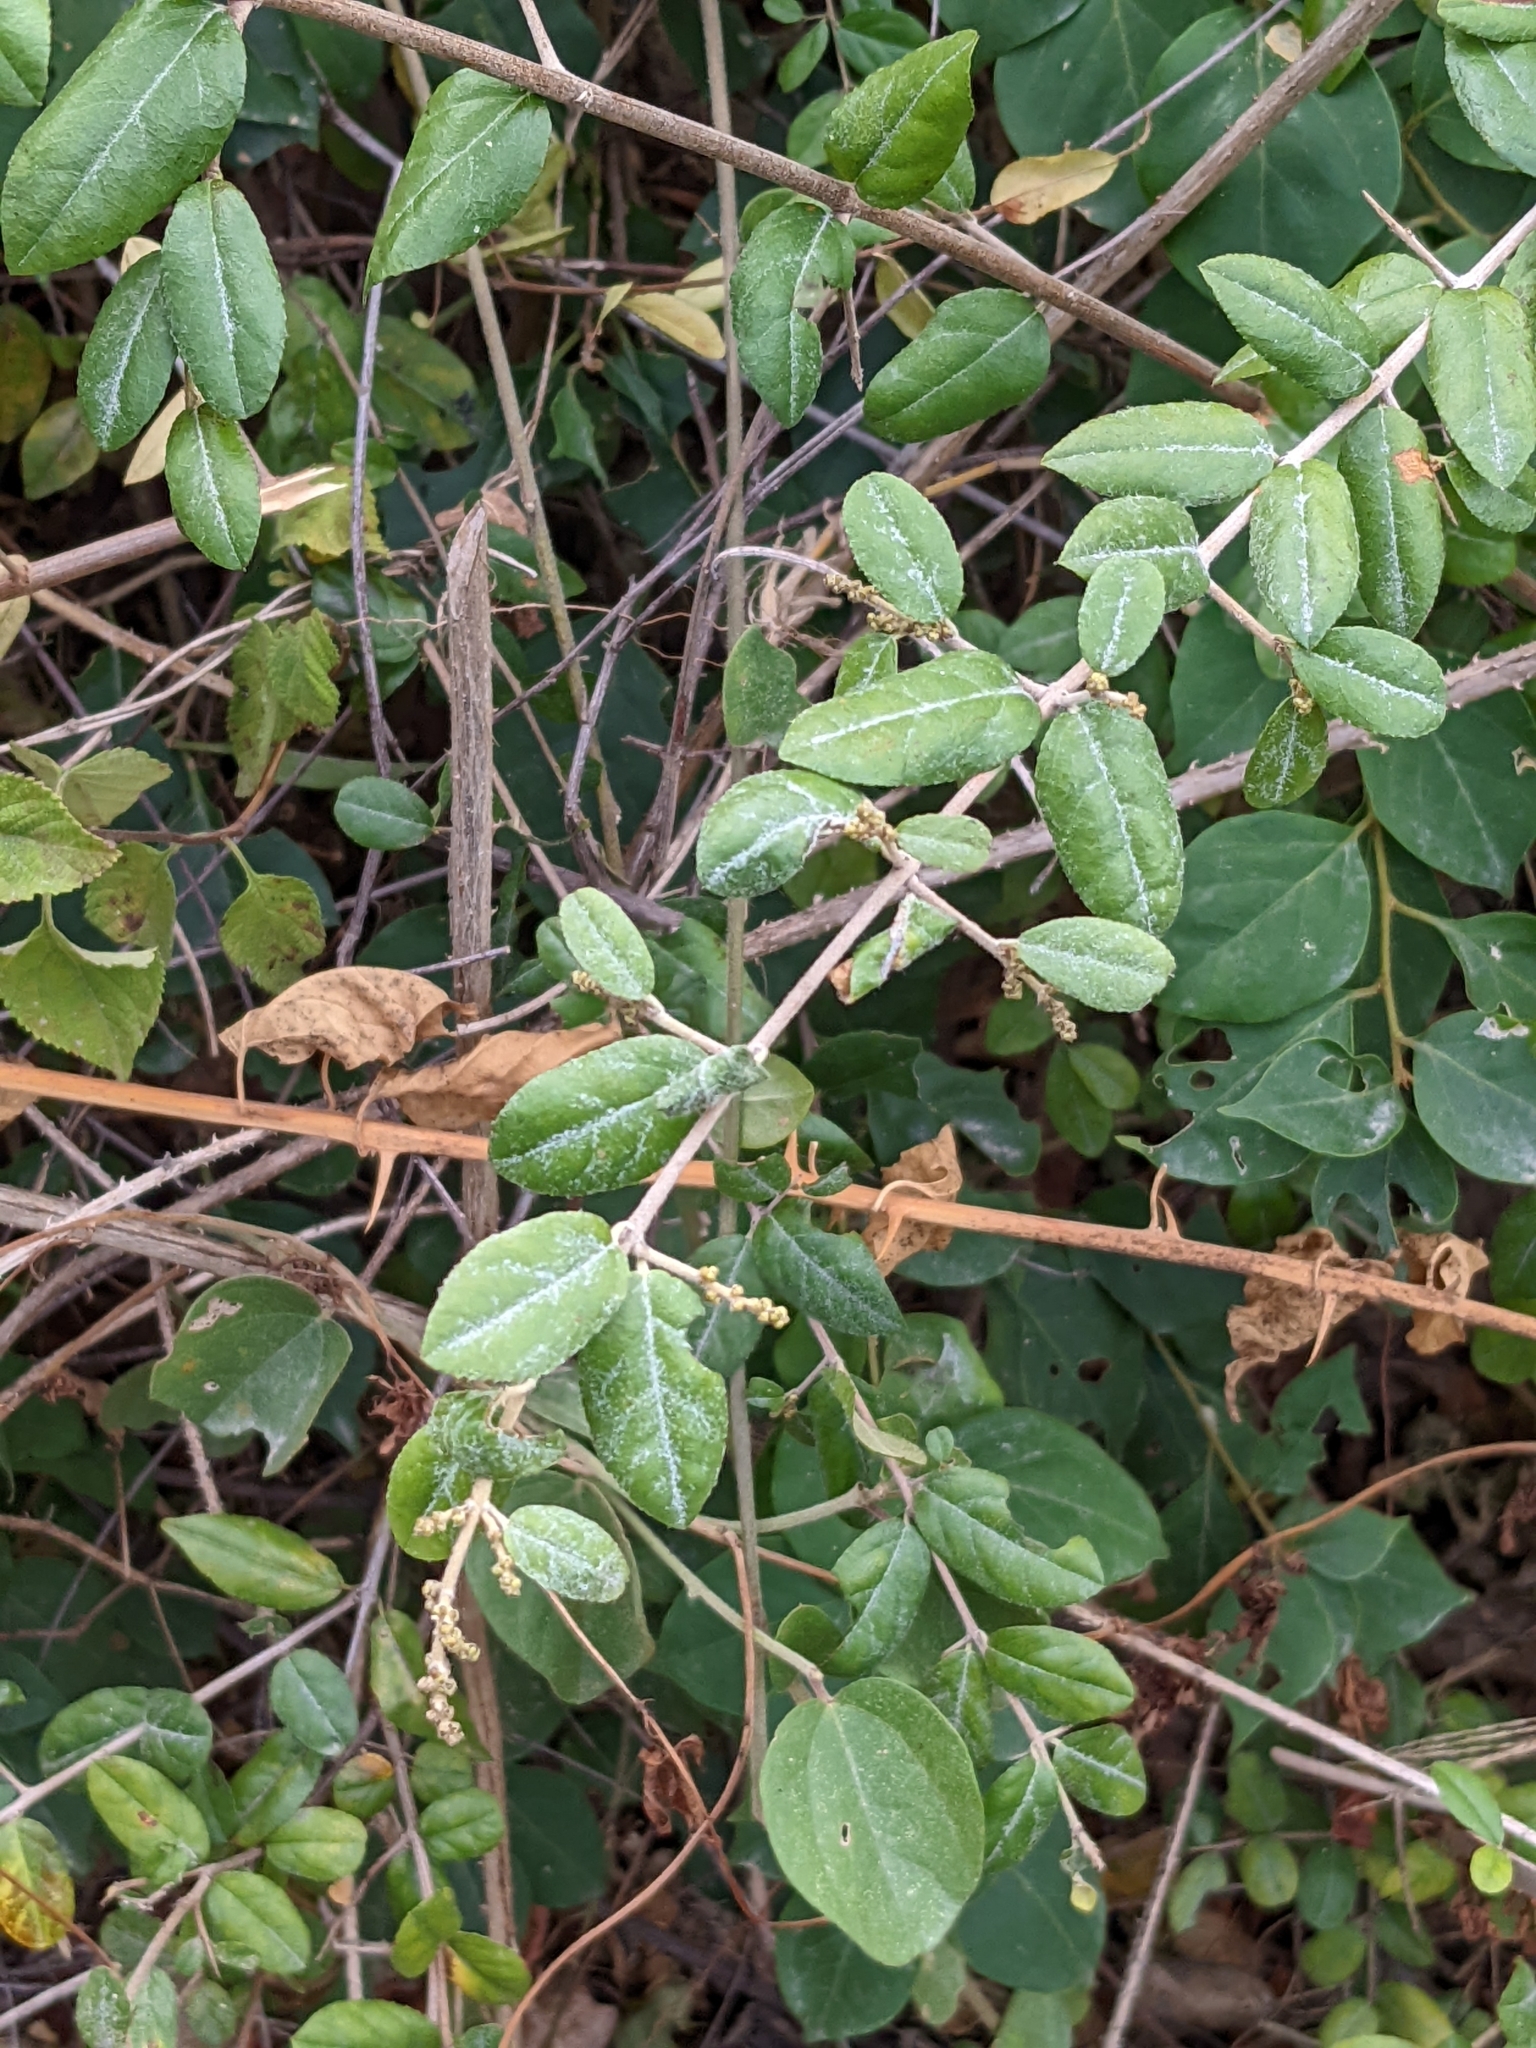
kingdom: Plantae
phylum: Tracheophyta
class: Magnoliopsida
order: Rosales
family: Rhamnaceae
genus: Sageretia
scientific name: Sageretia thea
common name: Pauper's-tea
